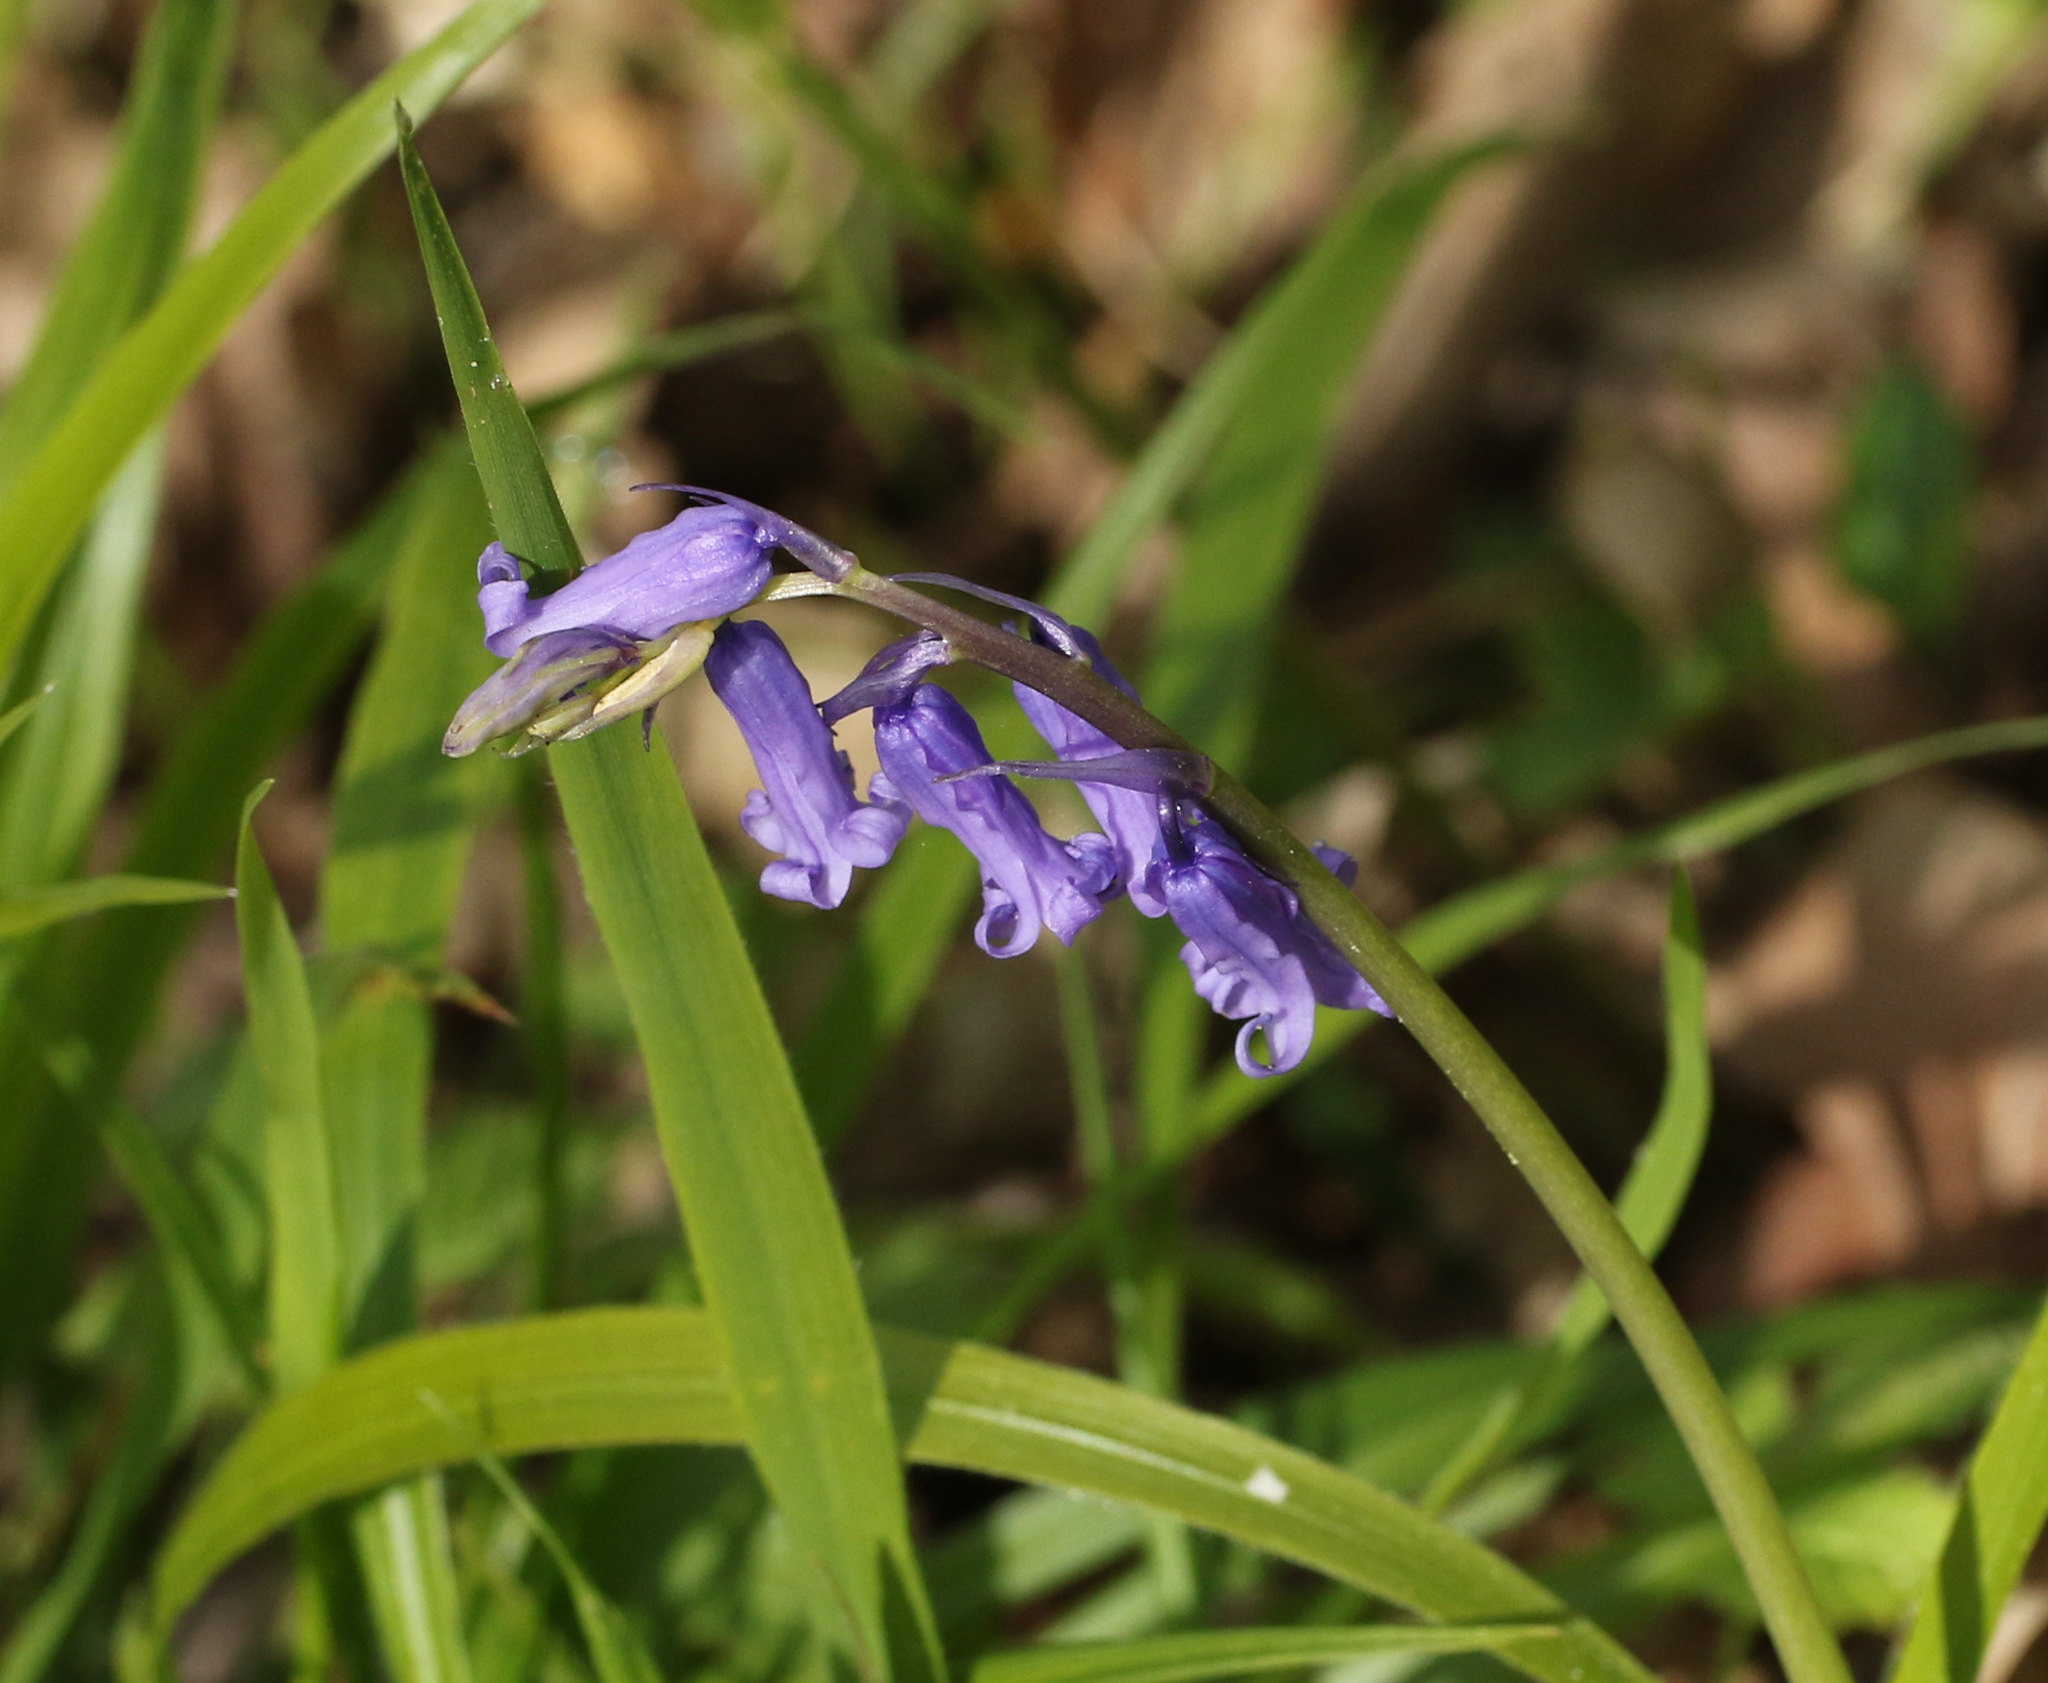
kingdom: Plantae
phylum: Tracheophyta
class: Liliopsida
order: Asparagales
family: Asparagaceae
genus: Hyacinthoides
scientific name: Hyacinthoides non-scripta
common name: Bluebell
